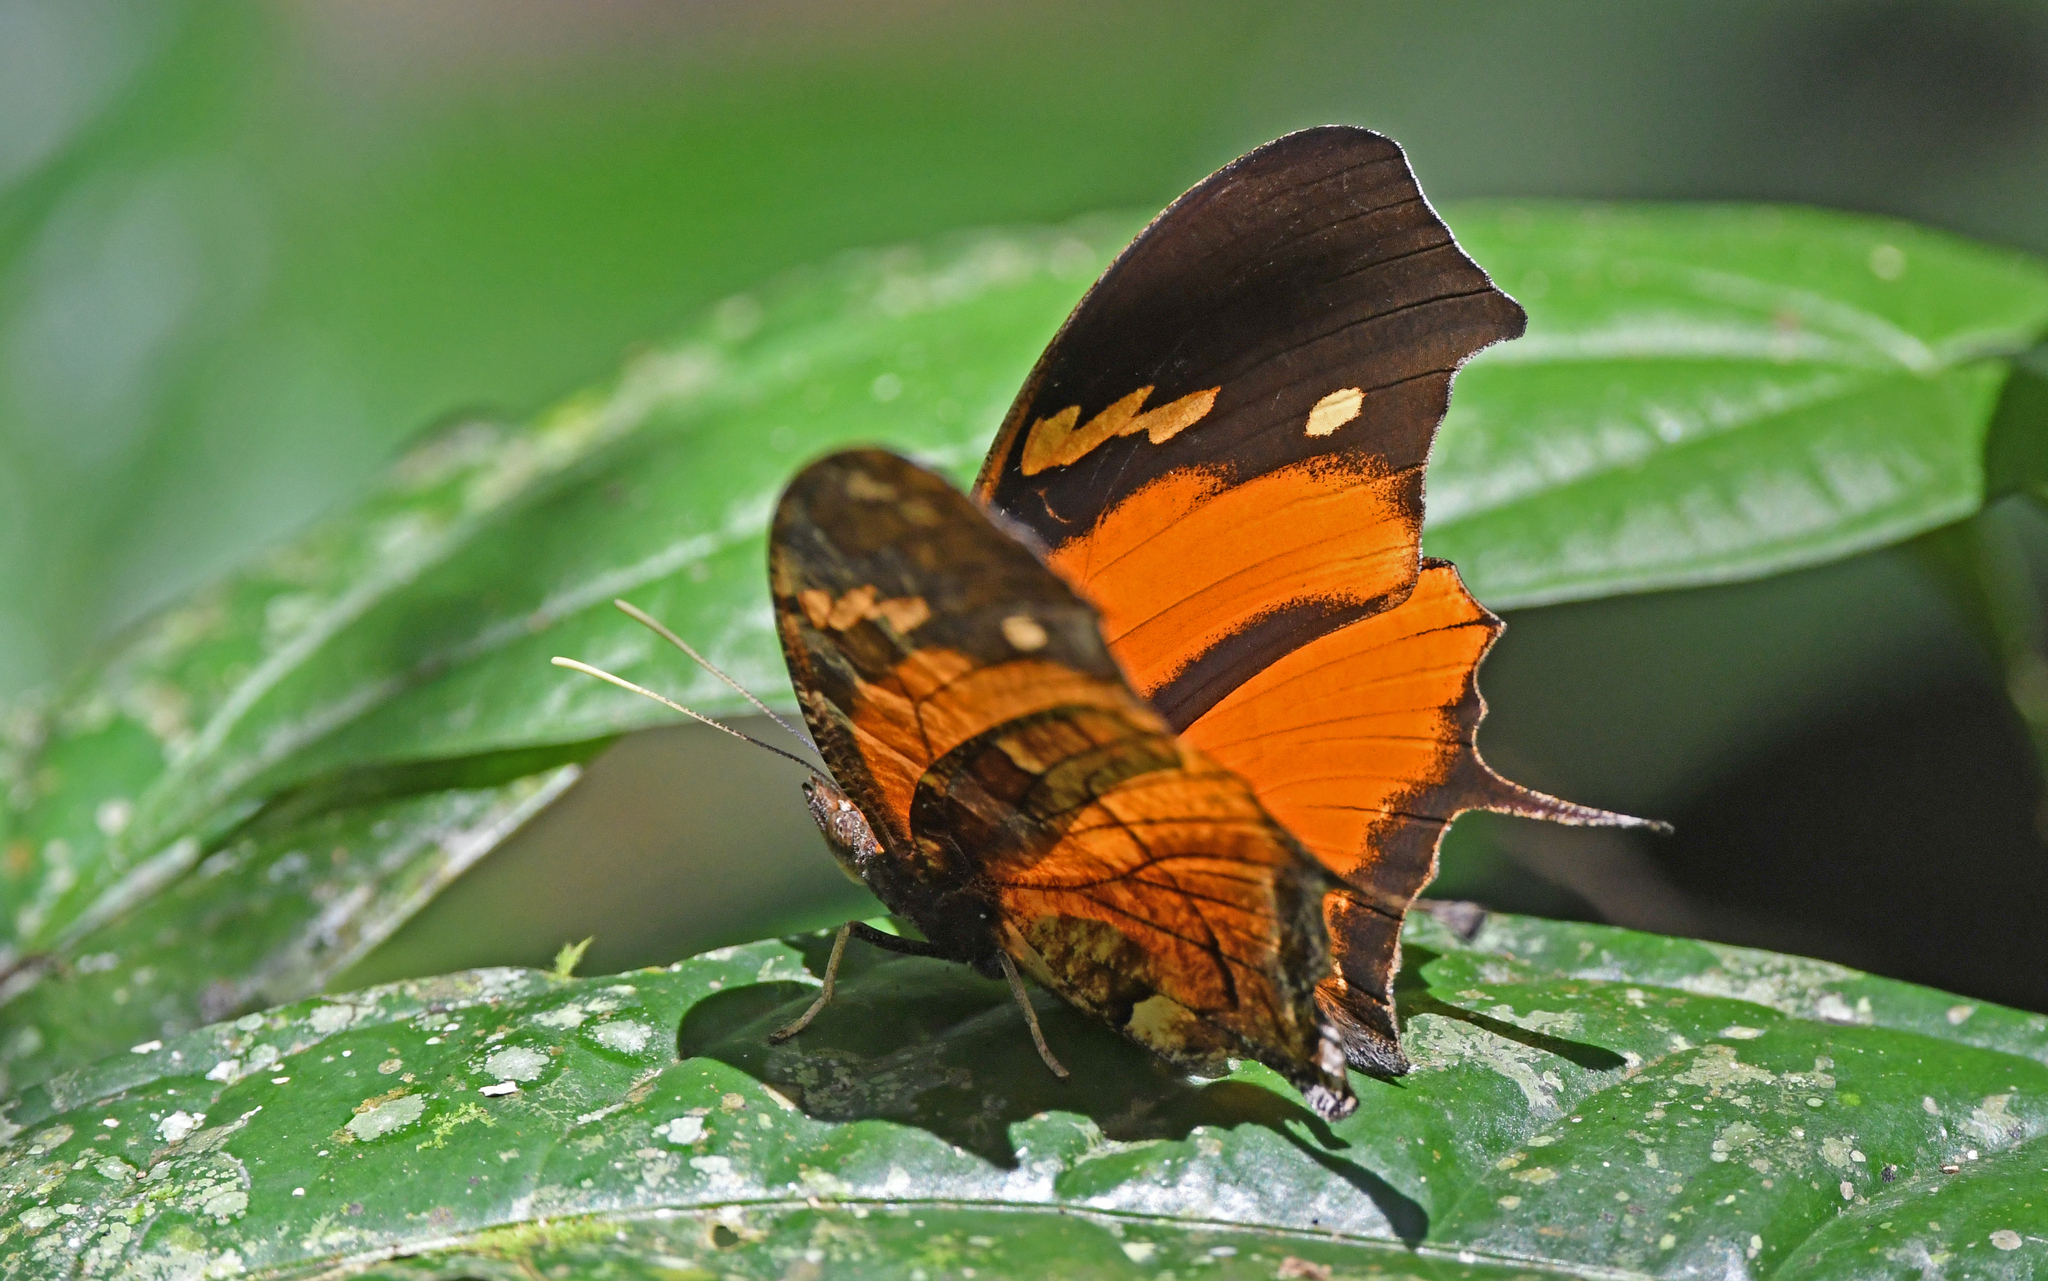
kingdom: Animalia
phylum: Arthropoda
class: Insecta
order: Lepidoptera
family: Nymphalidae
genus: Consul
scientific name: Consul fabius
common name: Tiger leafwing
